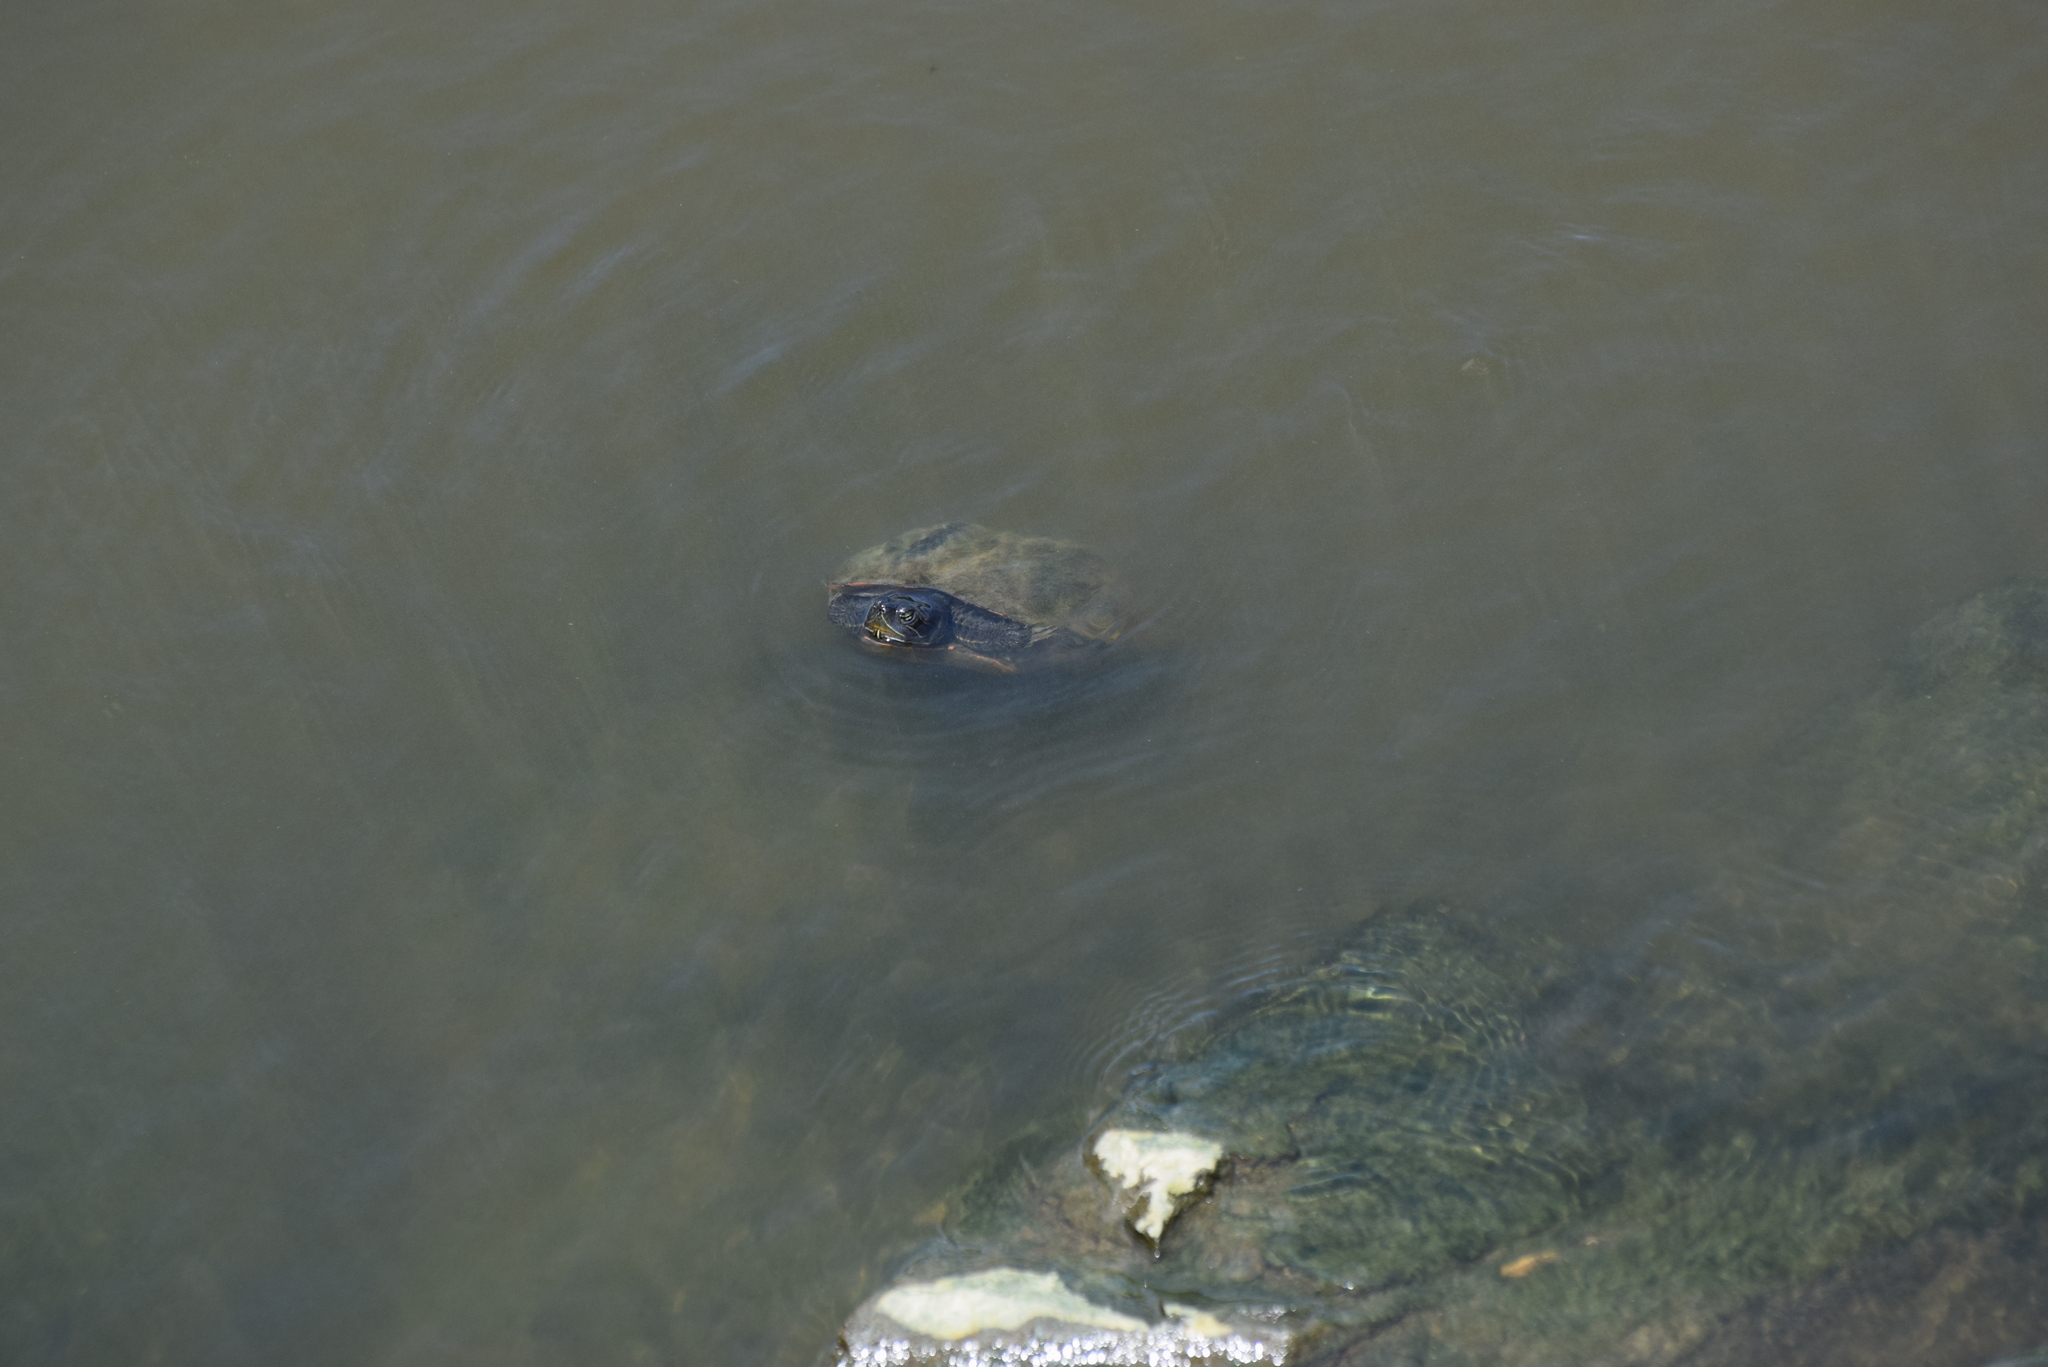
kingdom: Animalia
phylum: Chordata
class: Testudines
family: Emydidae
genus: Pseudemys
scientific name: Pseudemys rubriventris
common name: American red-bellied turtle
